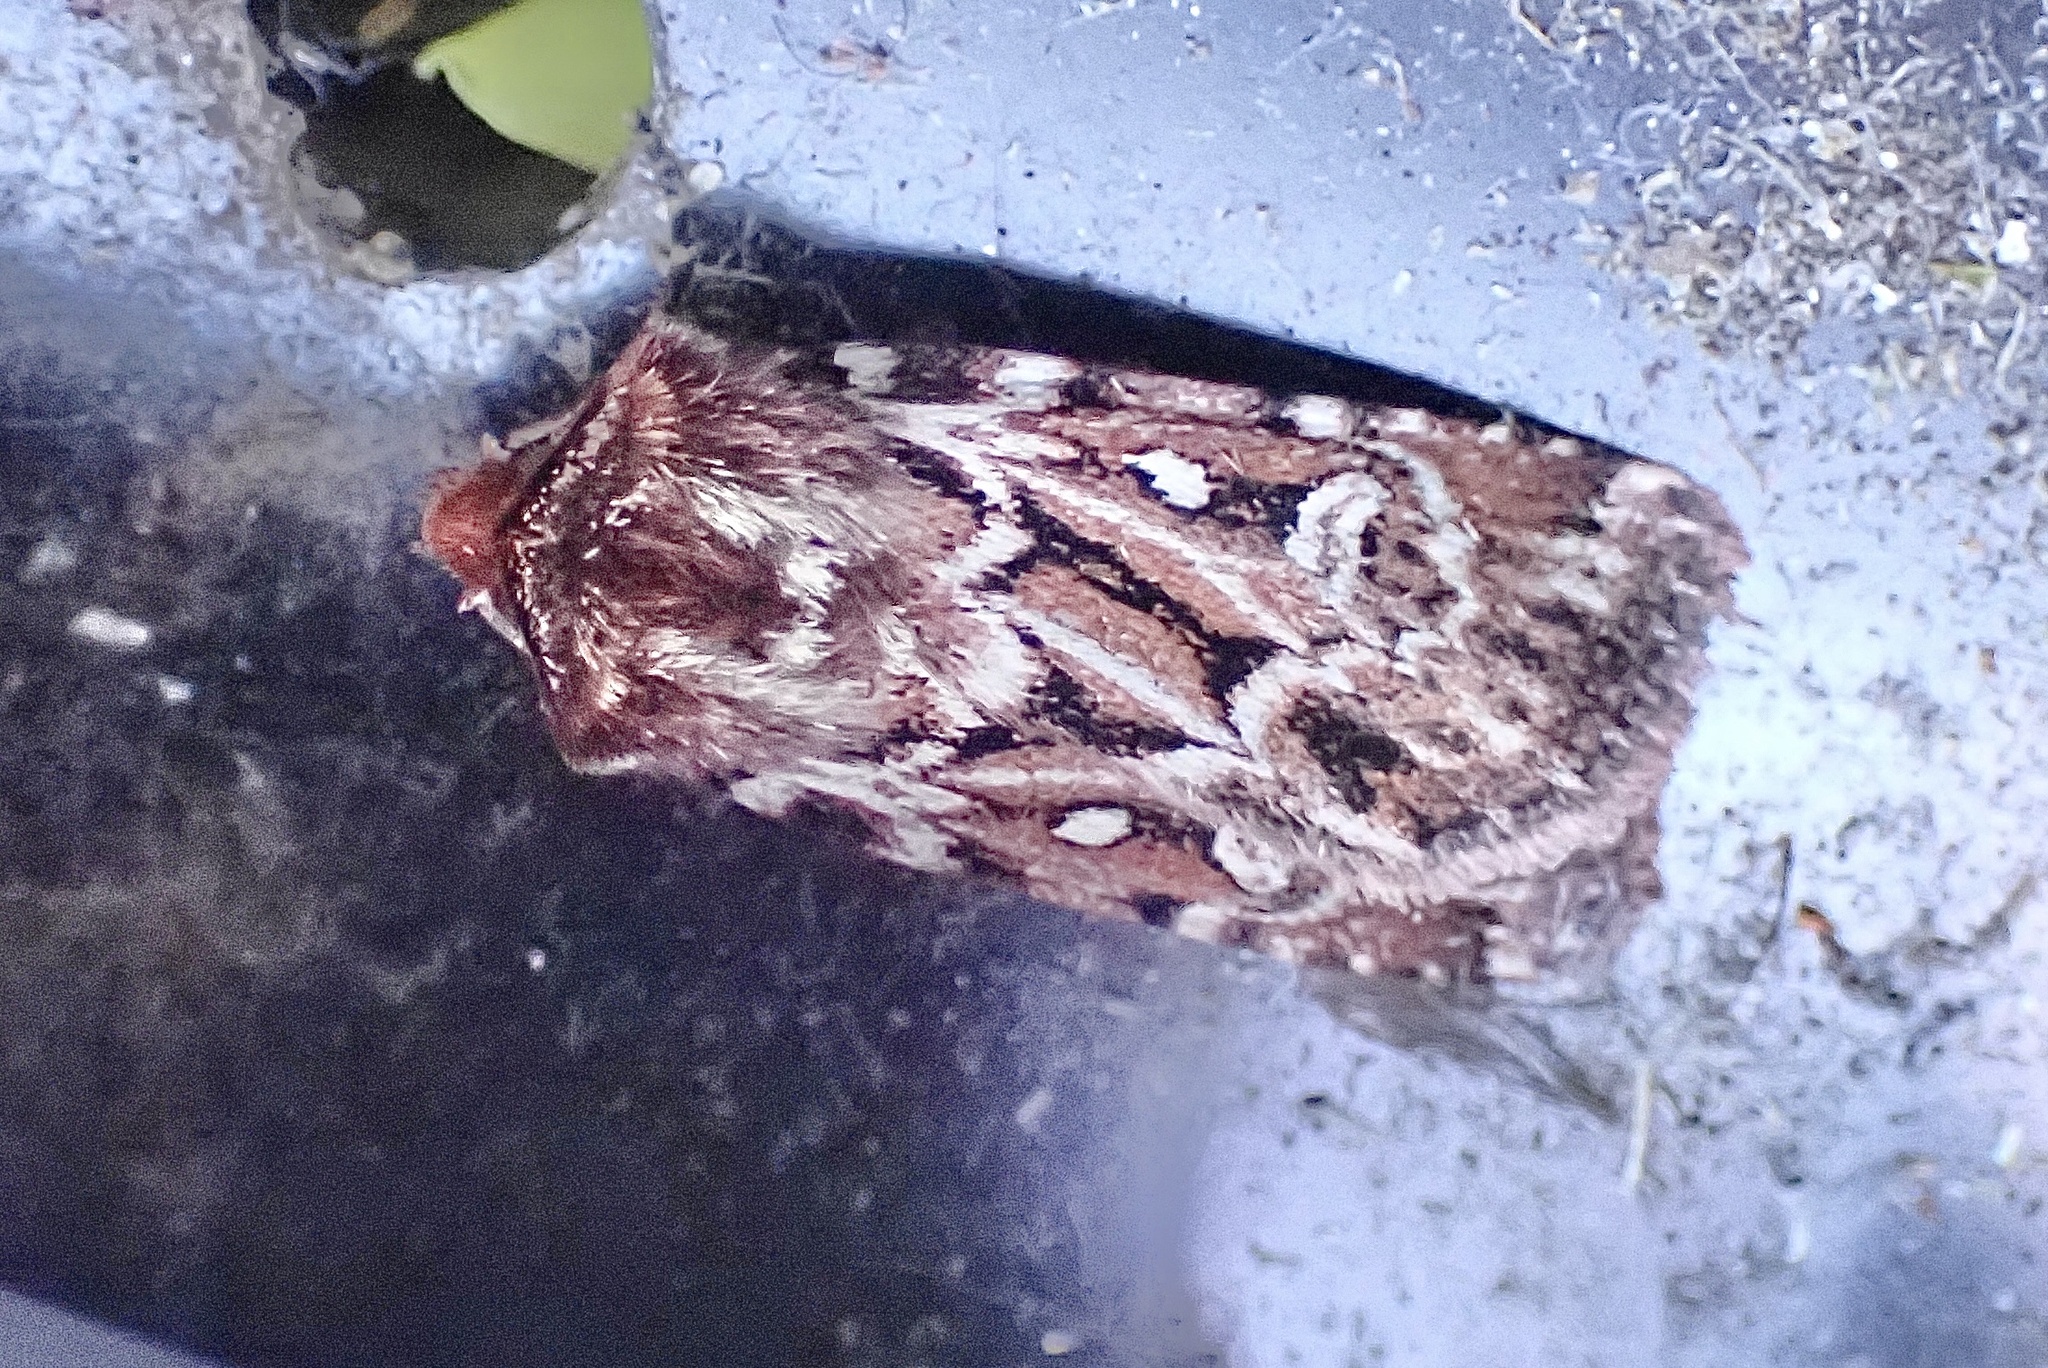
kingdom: Animalia
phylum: Arthropoda
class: Insecta
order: Lepidoptera
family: Noctuidae
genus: Lycophotia
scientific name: Lycophotia porphyrea
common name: True lover's knot
